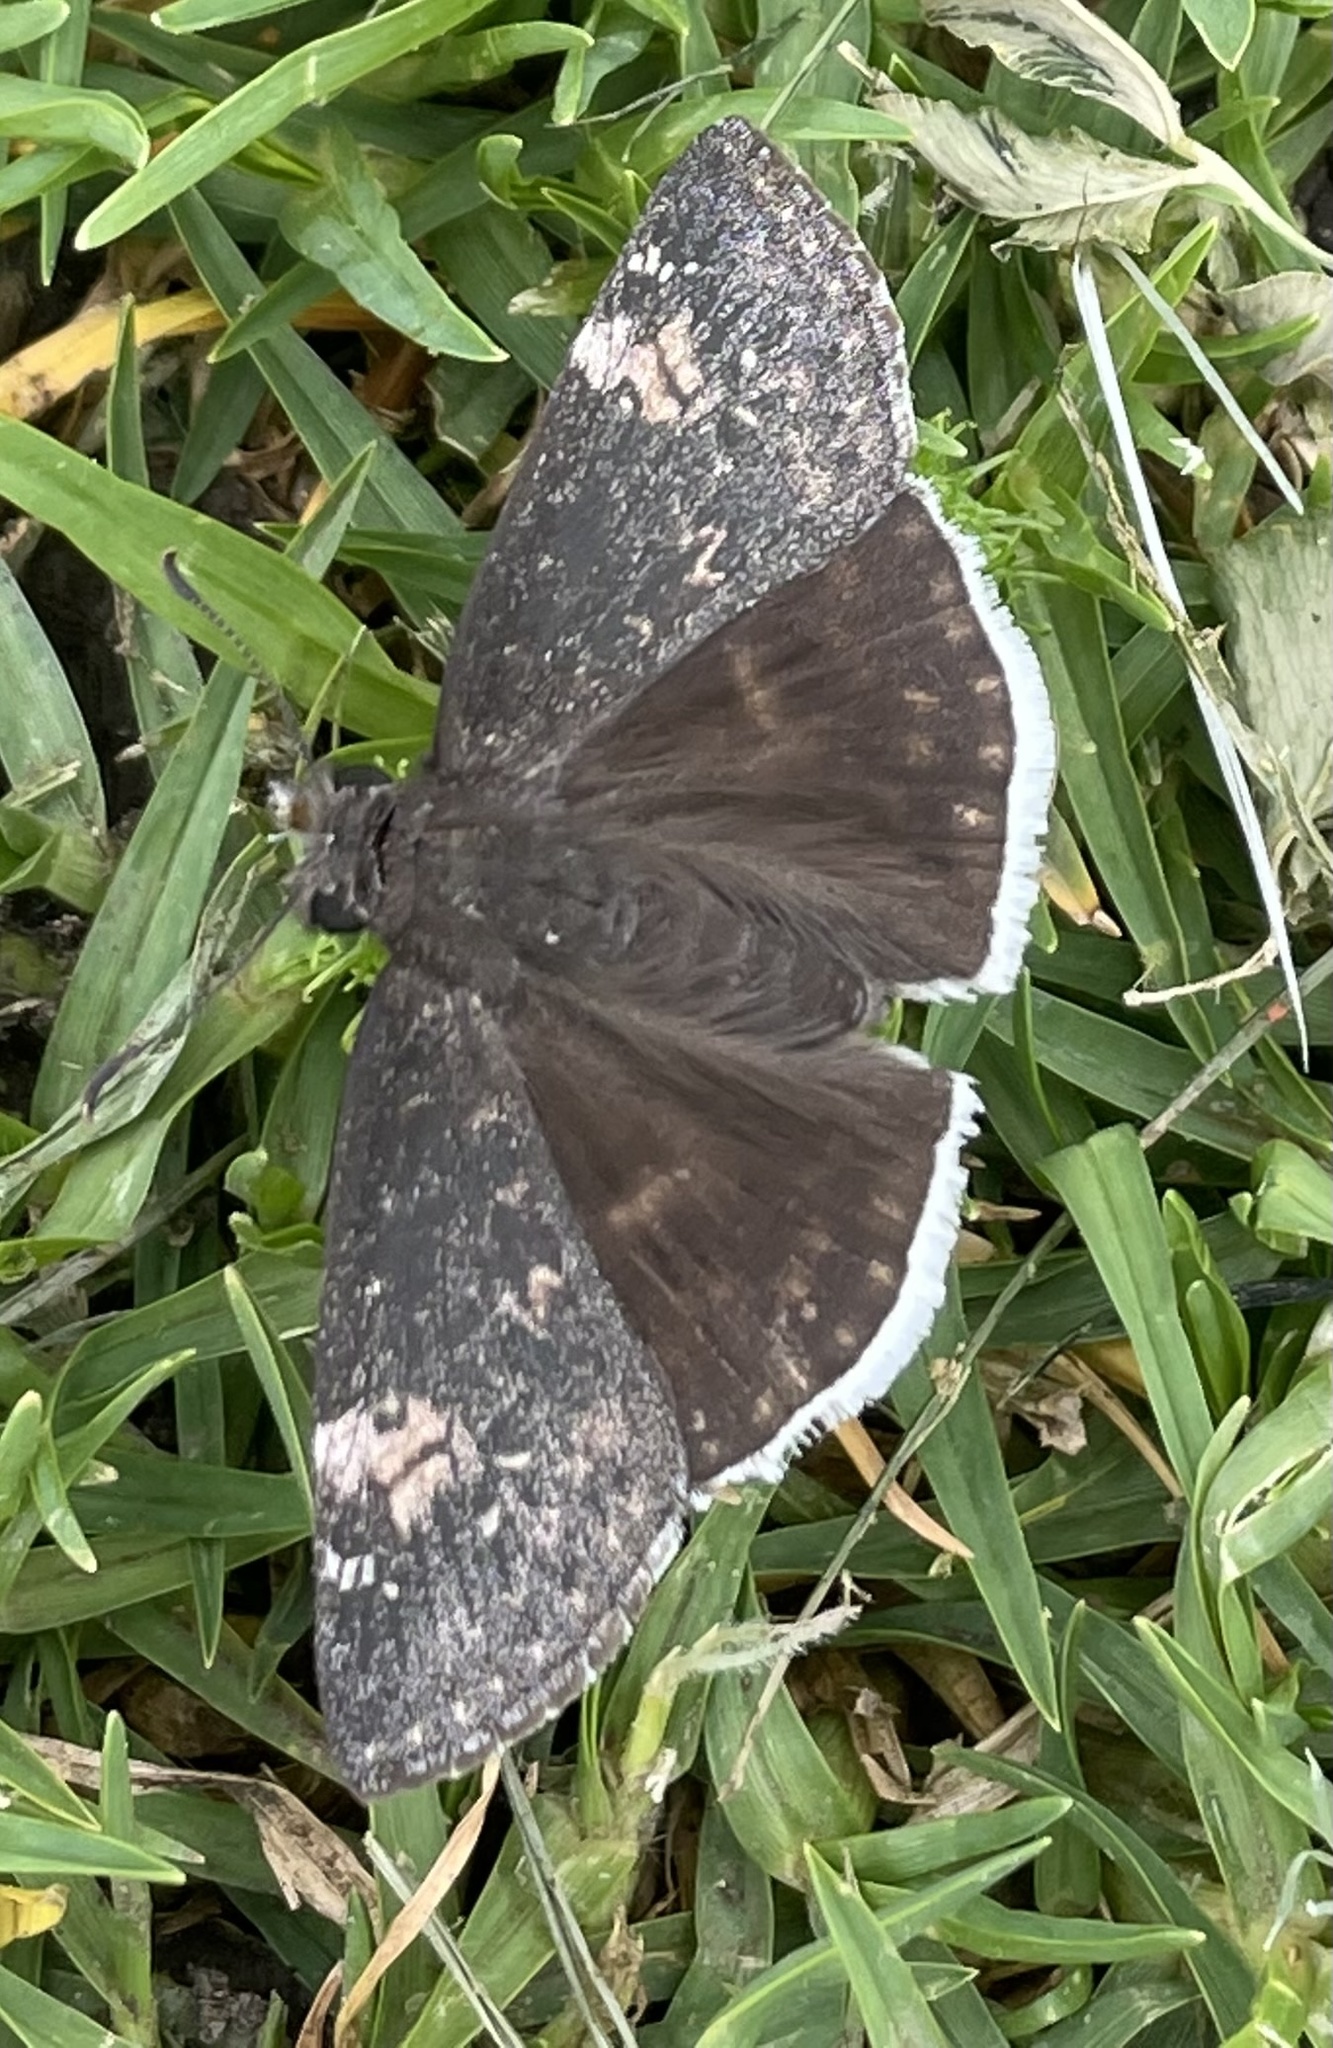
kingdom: Animalia
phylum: Arthropoda
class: Insecta
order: Lepidoptera
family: Hesperiidae
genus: Erynnis
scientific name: Erynnis funeralis
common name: Funereal duskywing
